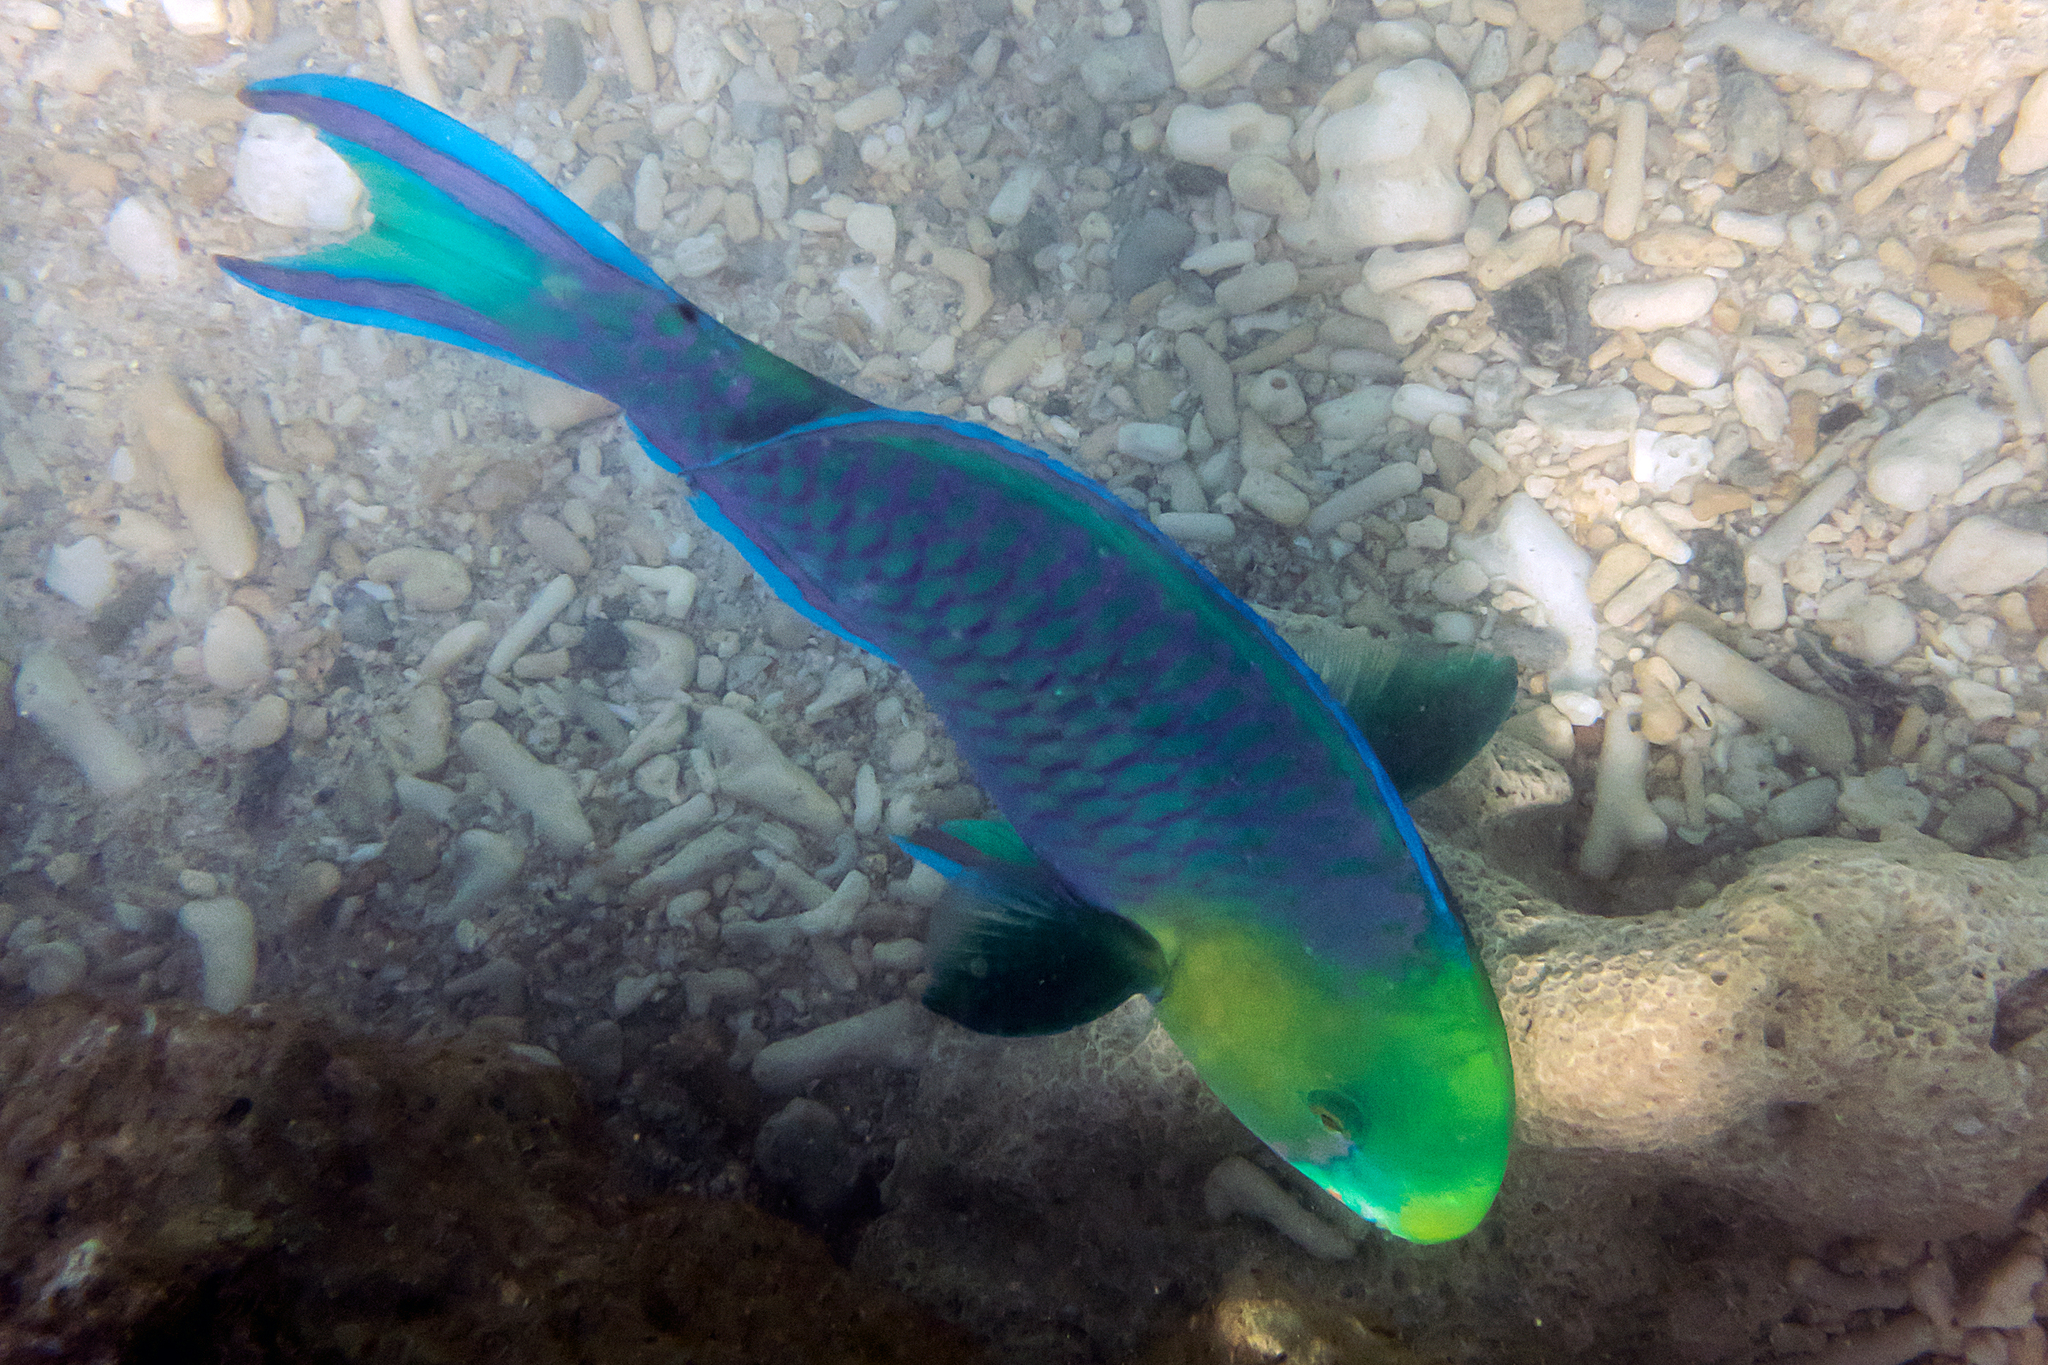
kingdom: Animalia
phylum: Chordata
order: Perciformes
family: Scaridae
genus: Scarus
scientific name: Scarus spinus
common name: Greensnout parrotfish
